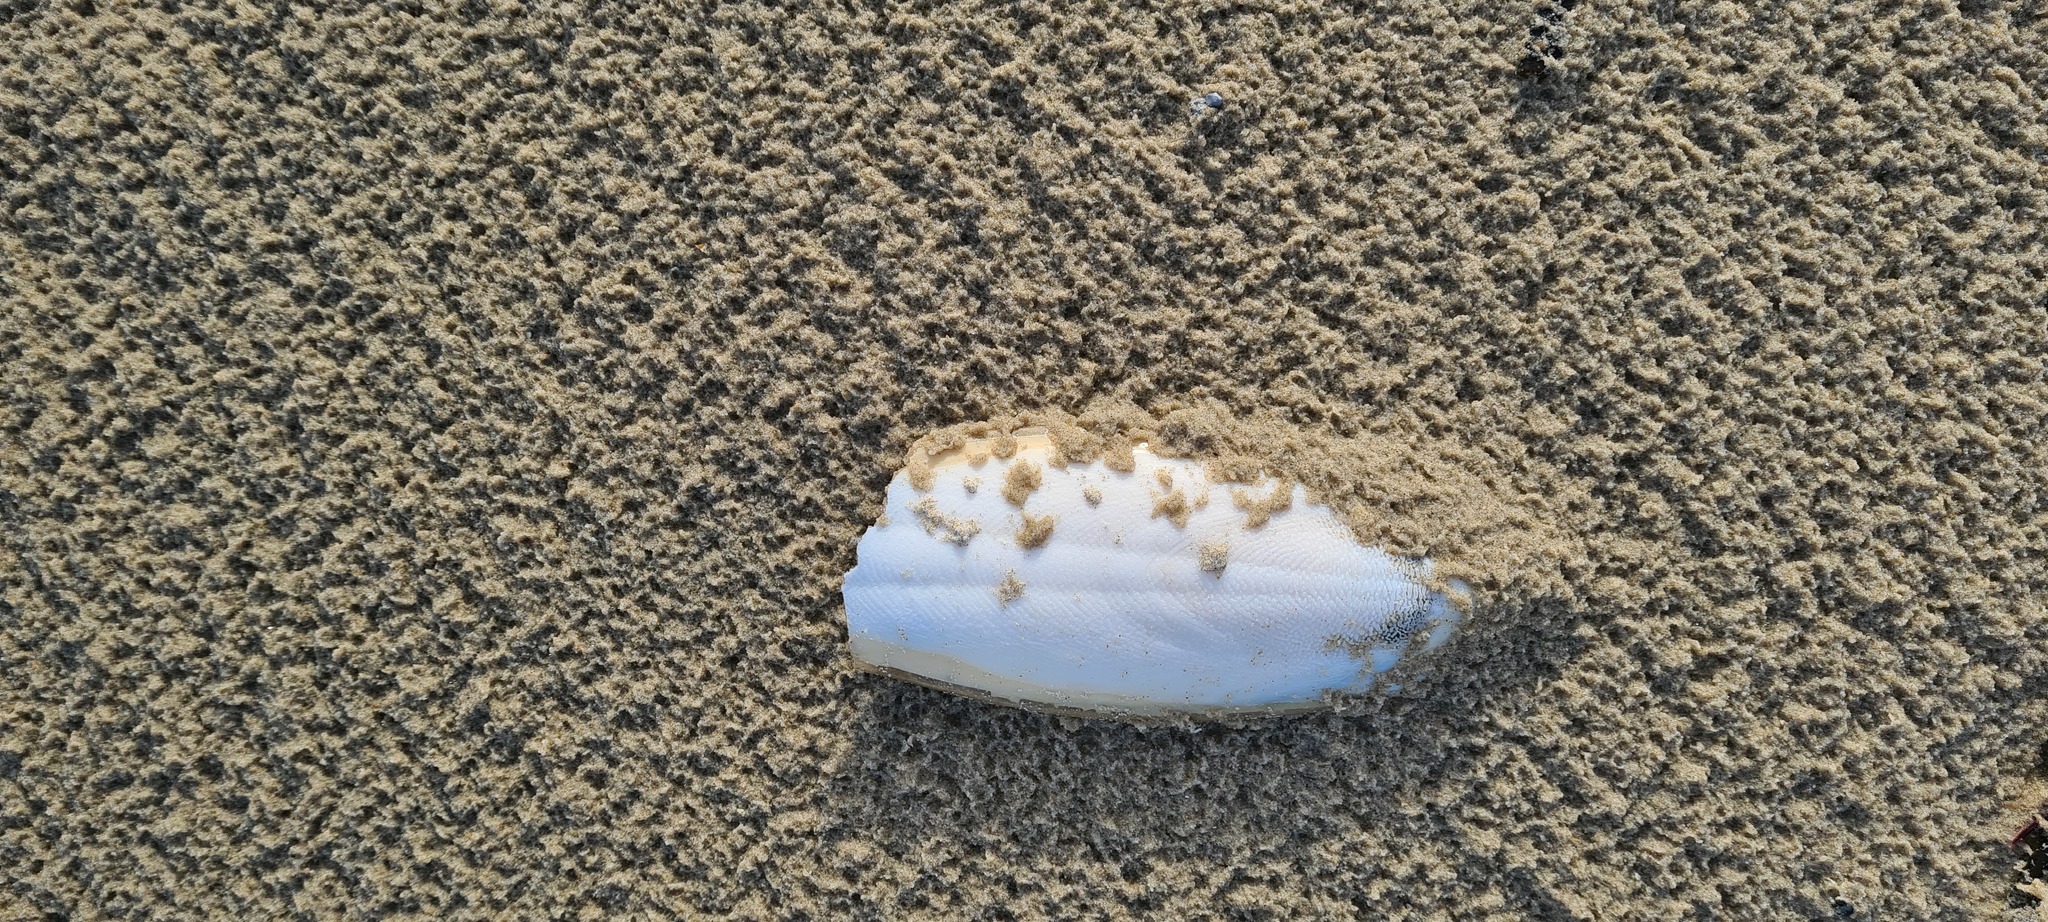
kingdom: Animalia
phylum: Mollusca
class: Cephalopoda
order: Sepiida
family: Sepiidae
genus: Sepia
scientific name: Sepia officinalis
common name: Common cuttlefish
